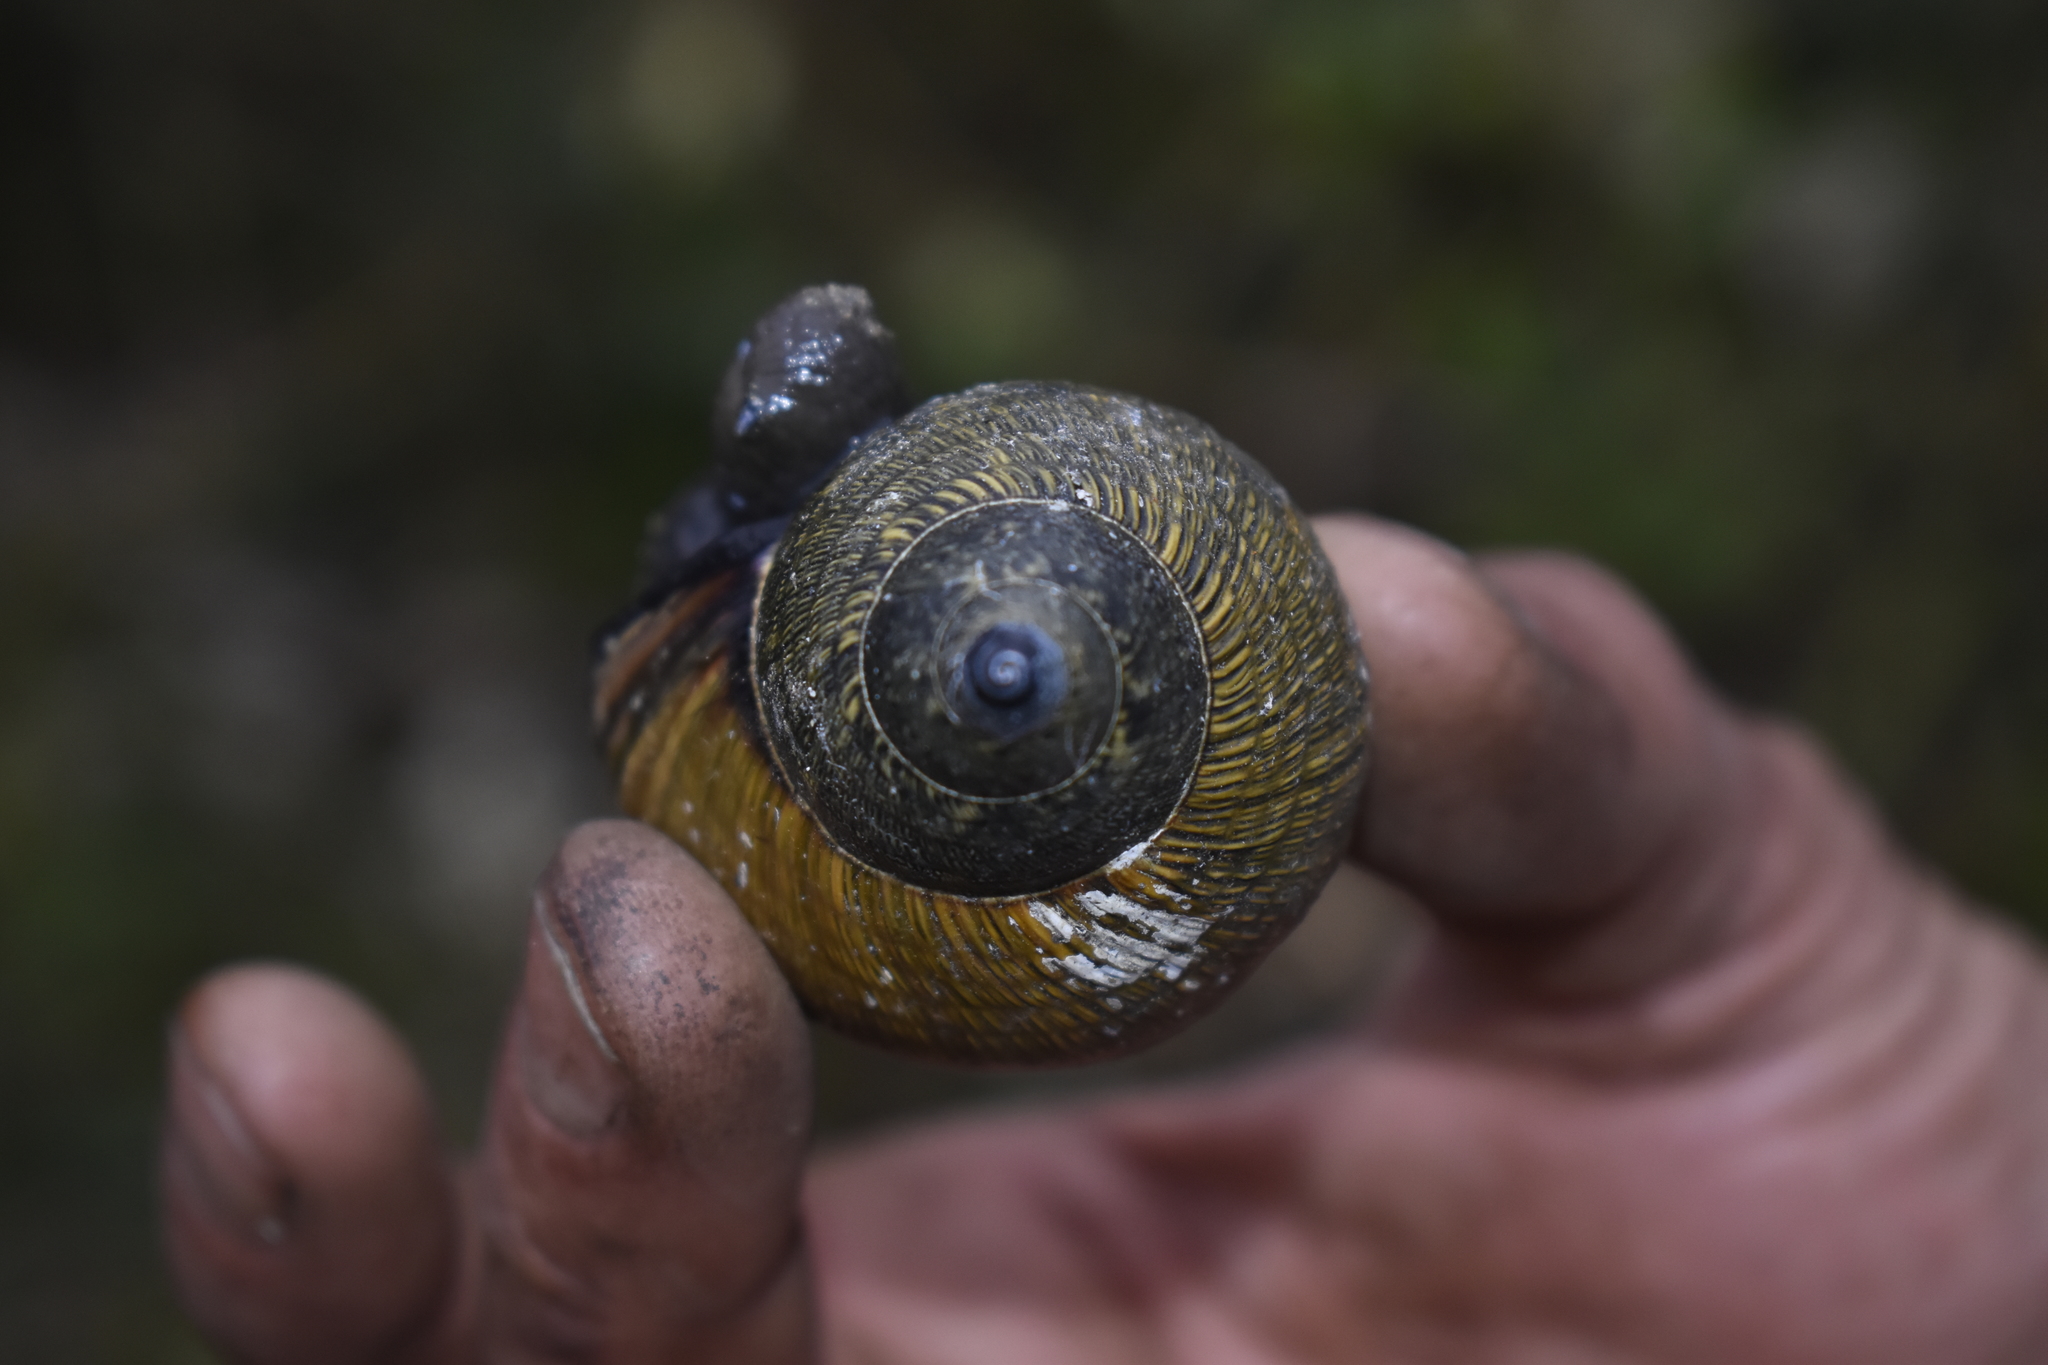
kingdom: Animalia
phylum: Mollusca
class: Gastropoda
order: Stylommatophora
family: Orthalicidae
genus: Porphyrobaphe
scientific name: Porphyrobaphe iris
